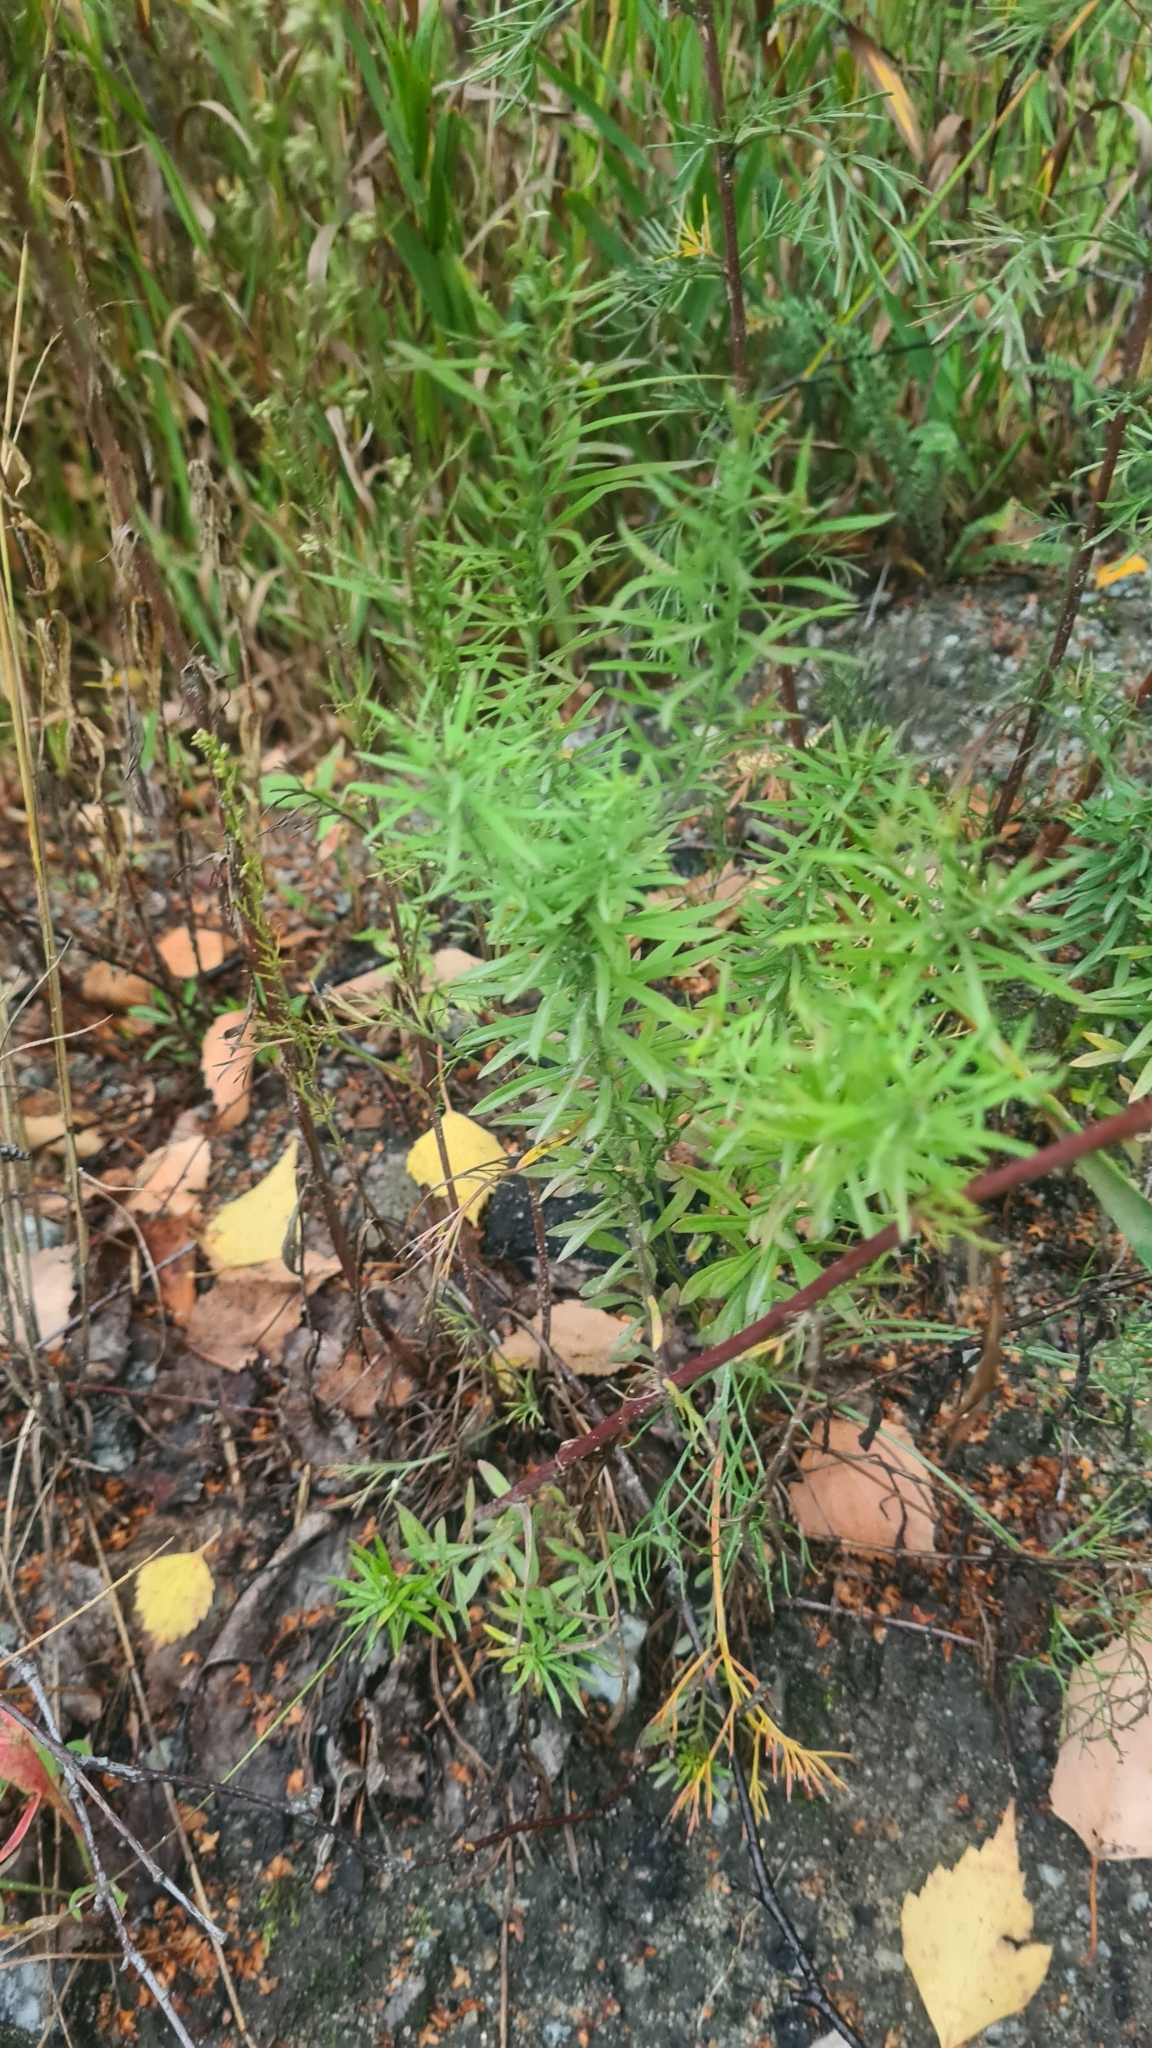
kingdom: Plantae
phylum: Tracheophyta
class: Magnoliopsida
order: Lamiales
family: Plantaginaceae
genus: Linaria
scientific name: Linaria vulgaris
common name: Butter and eggs
